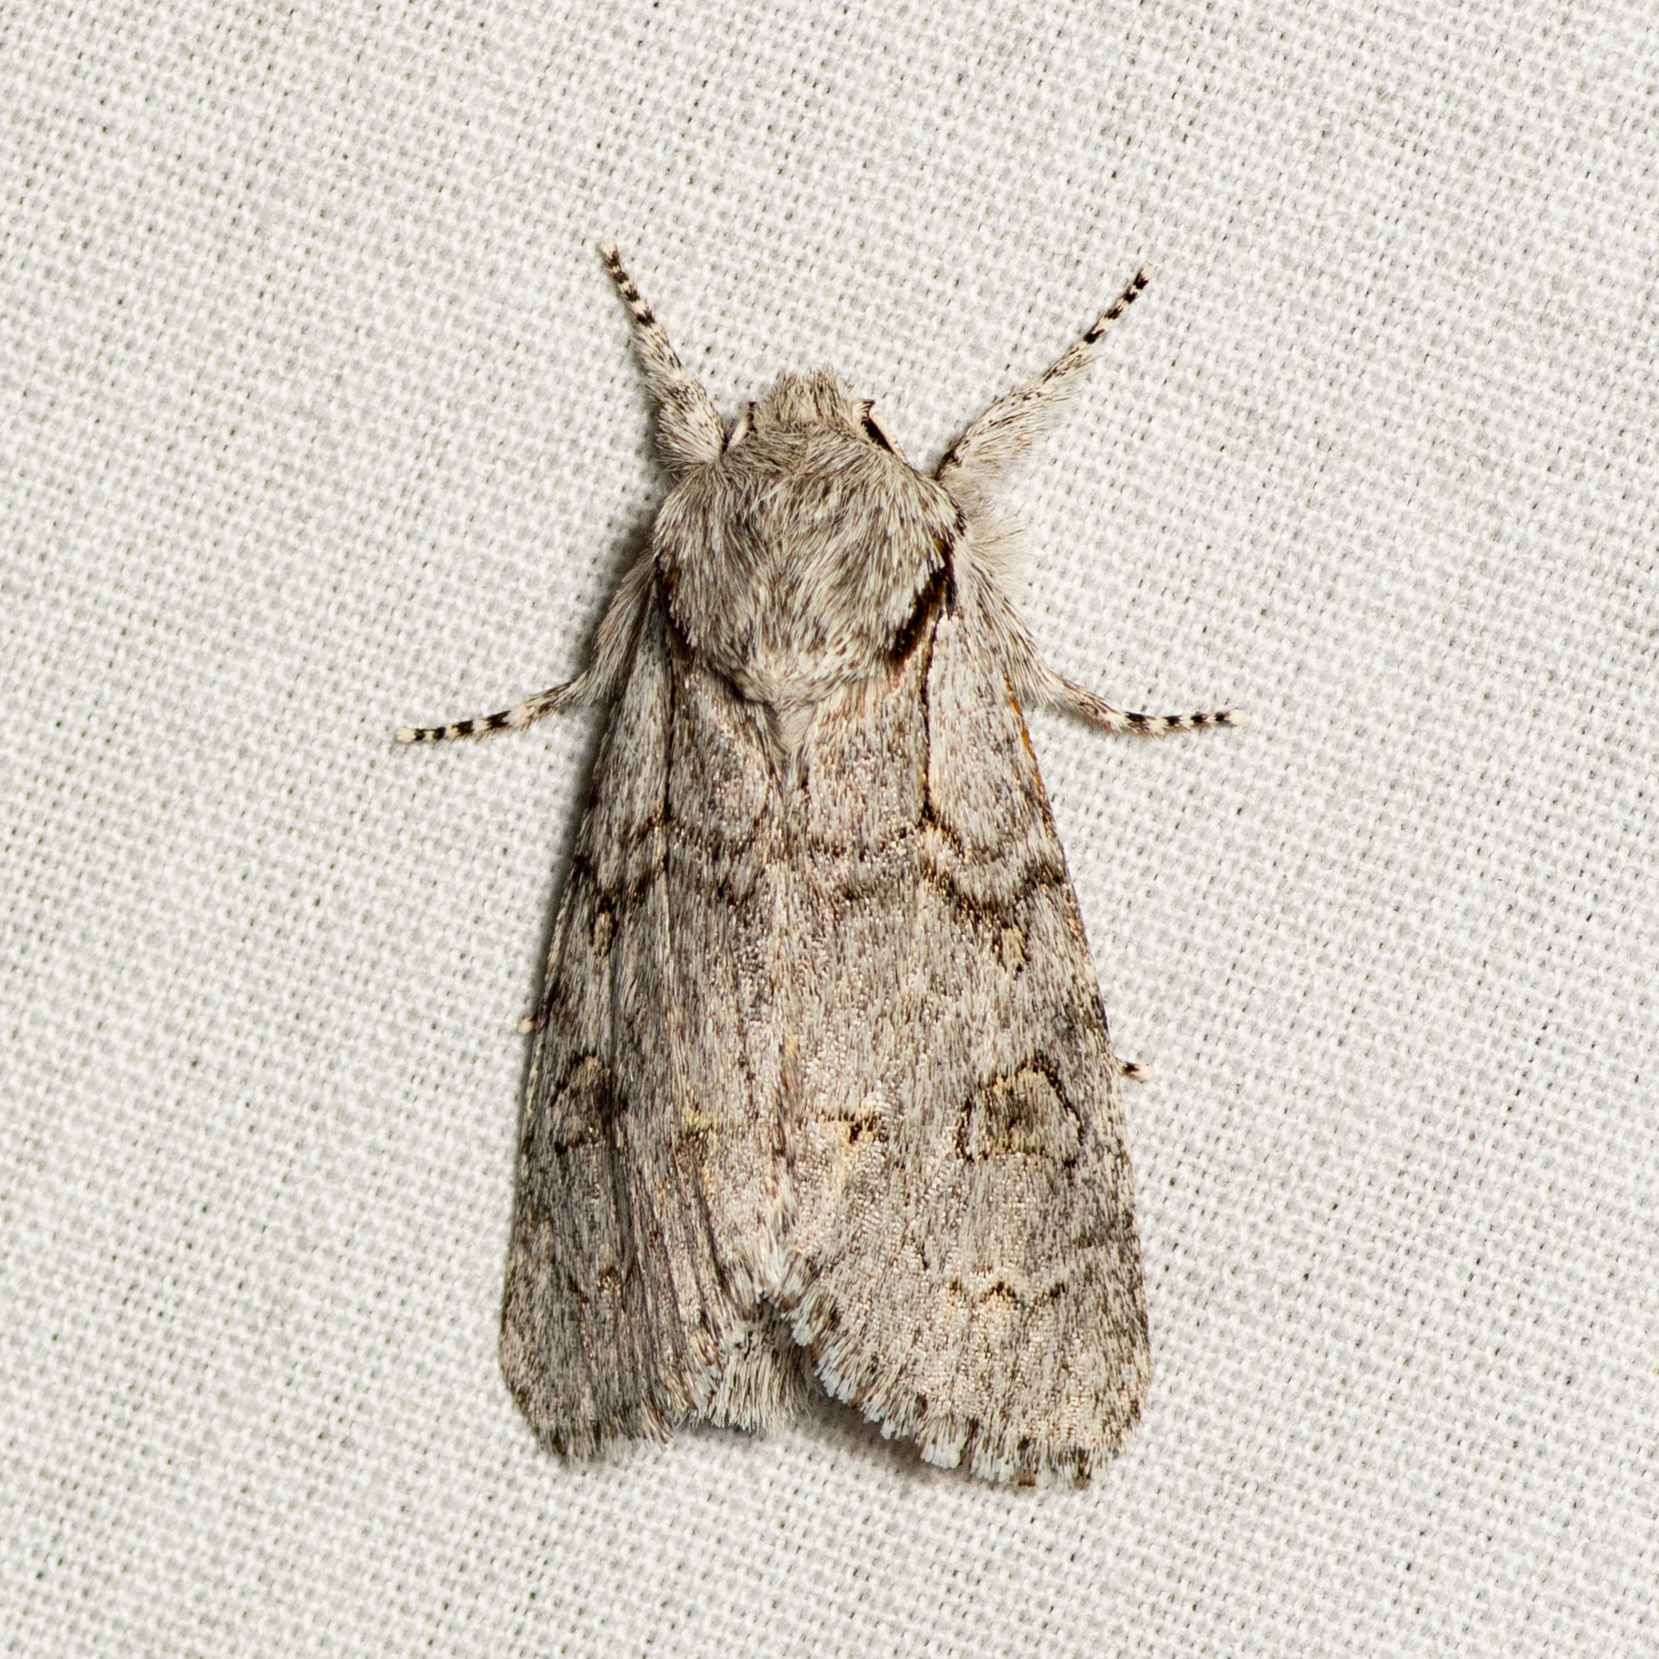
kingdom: Animalia
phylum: Arthropoda
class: Insecta
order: Lepidoptera
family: Noctuidae
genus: Acronicta
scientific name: Acronicta tota
